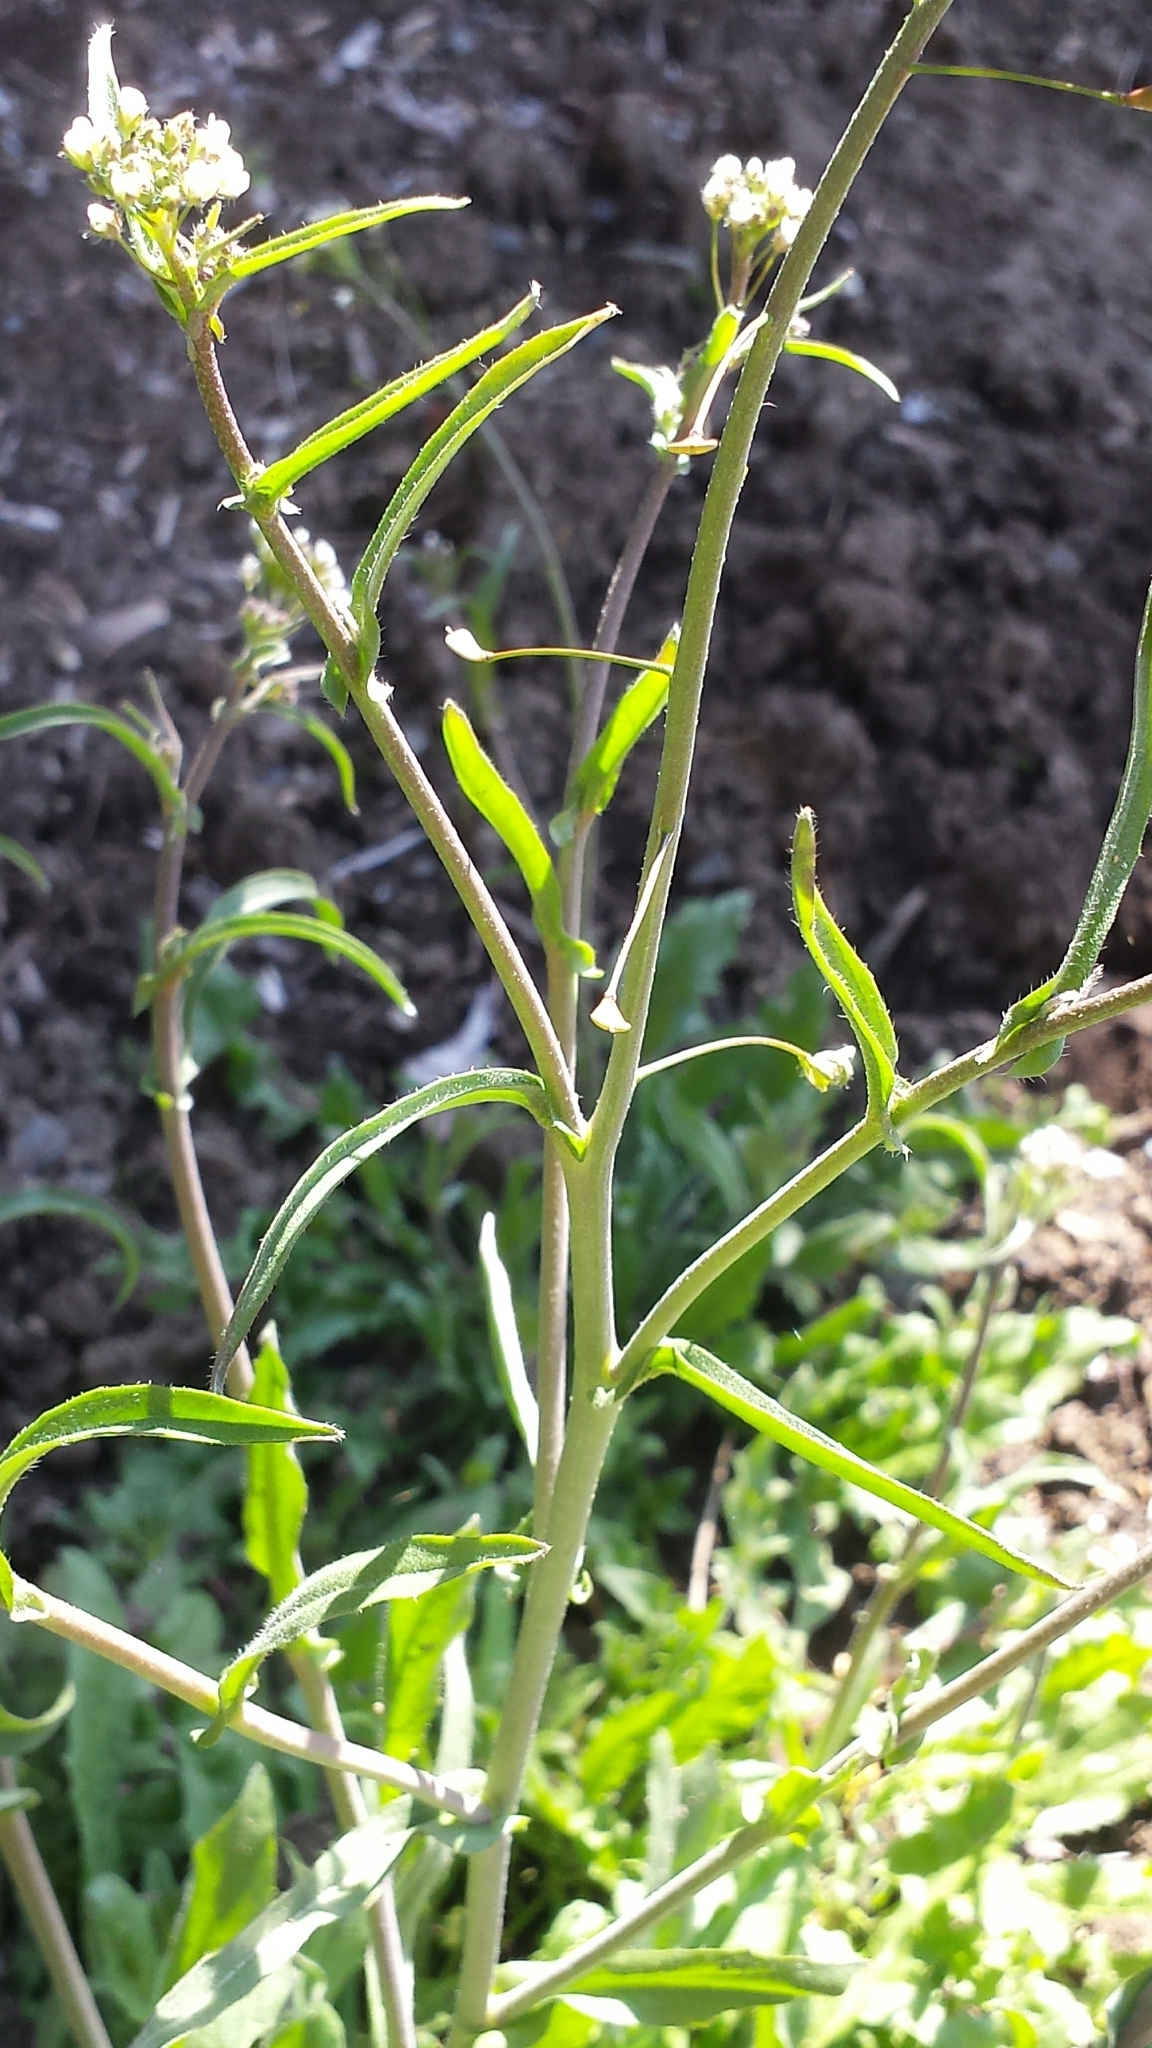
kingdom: Plantae
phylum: Tracheophyta
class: Magnoliopsida
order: Brassicales
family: Brassicaceae
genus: Capsella
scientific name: Capsella bursa-pastoris
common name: Shepherd's purse
